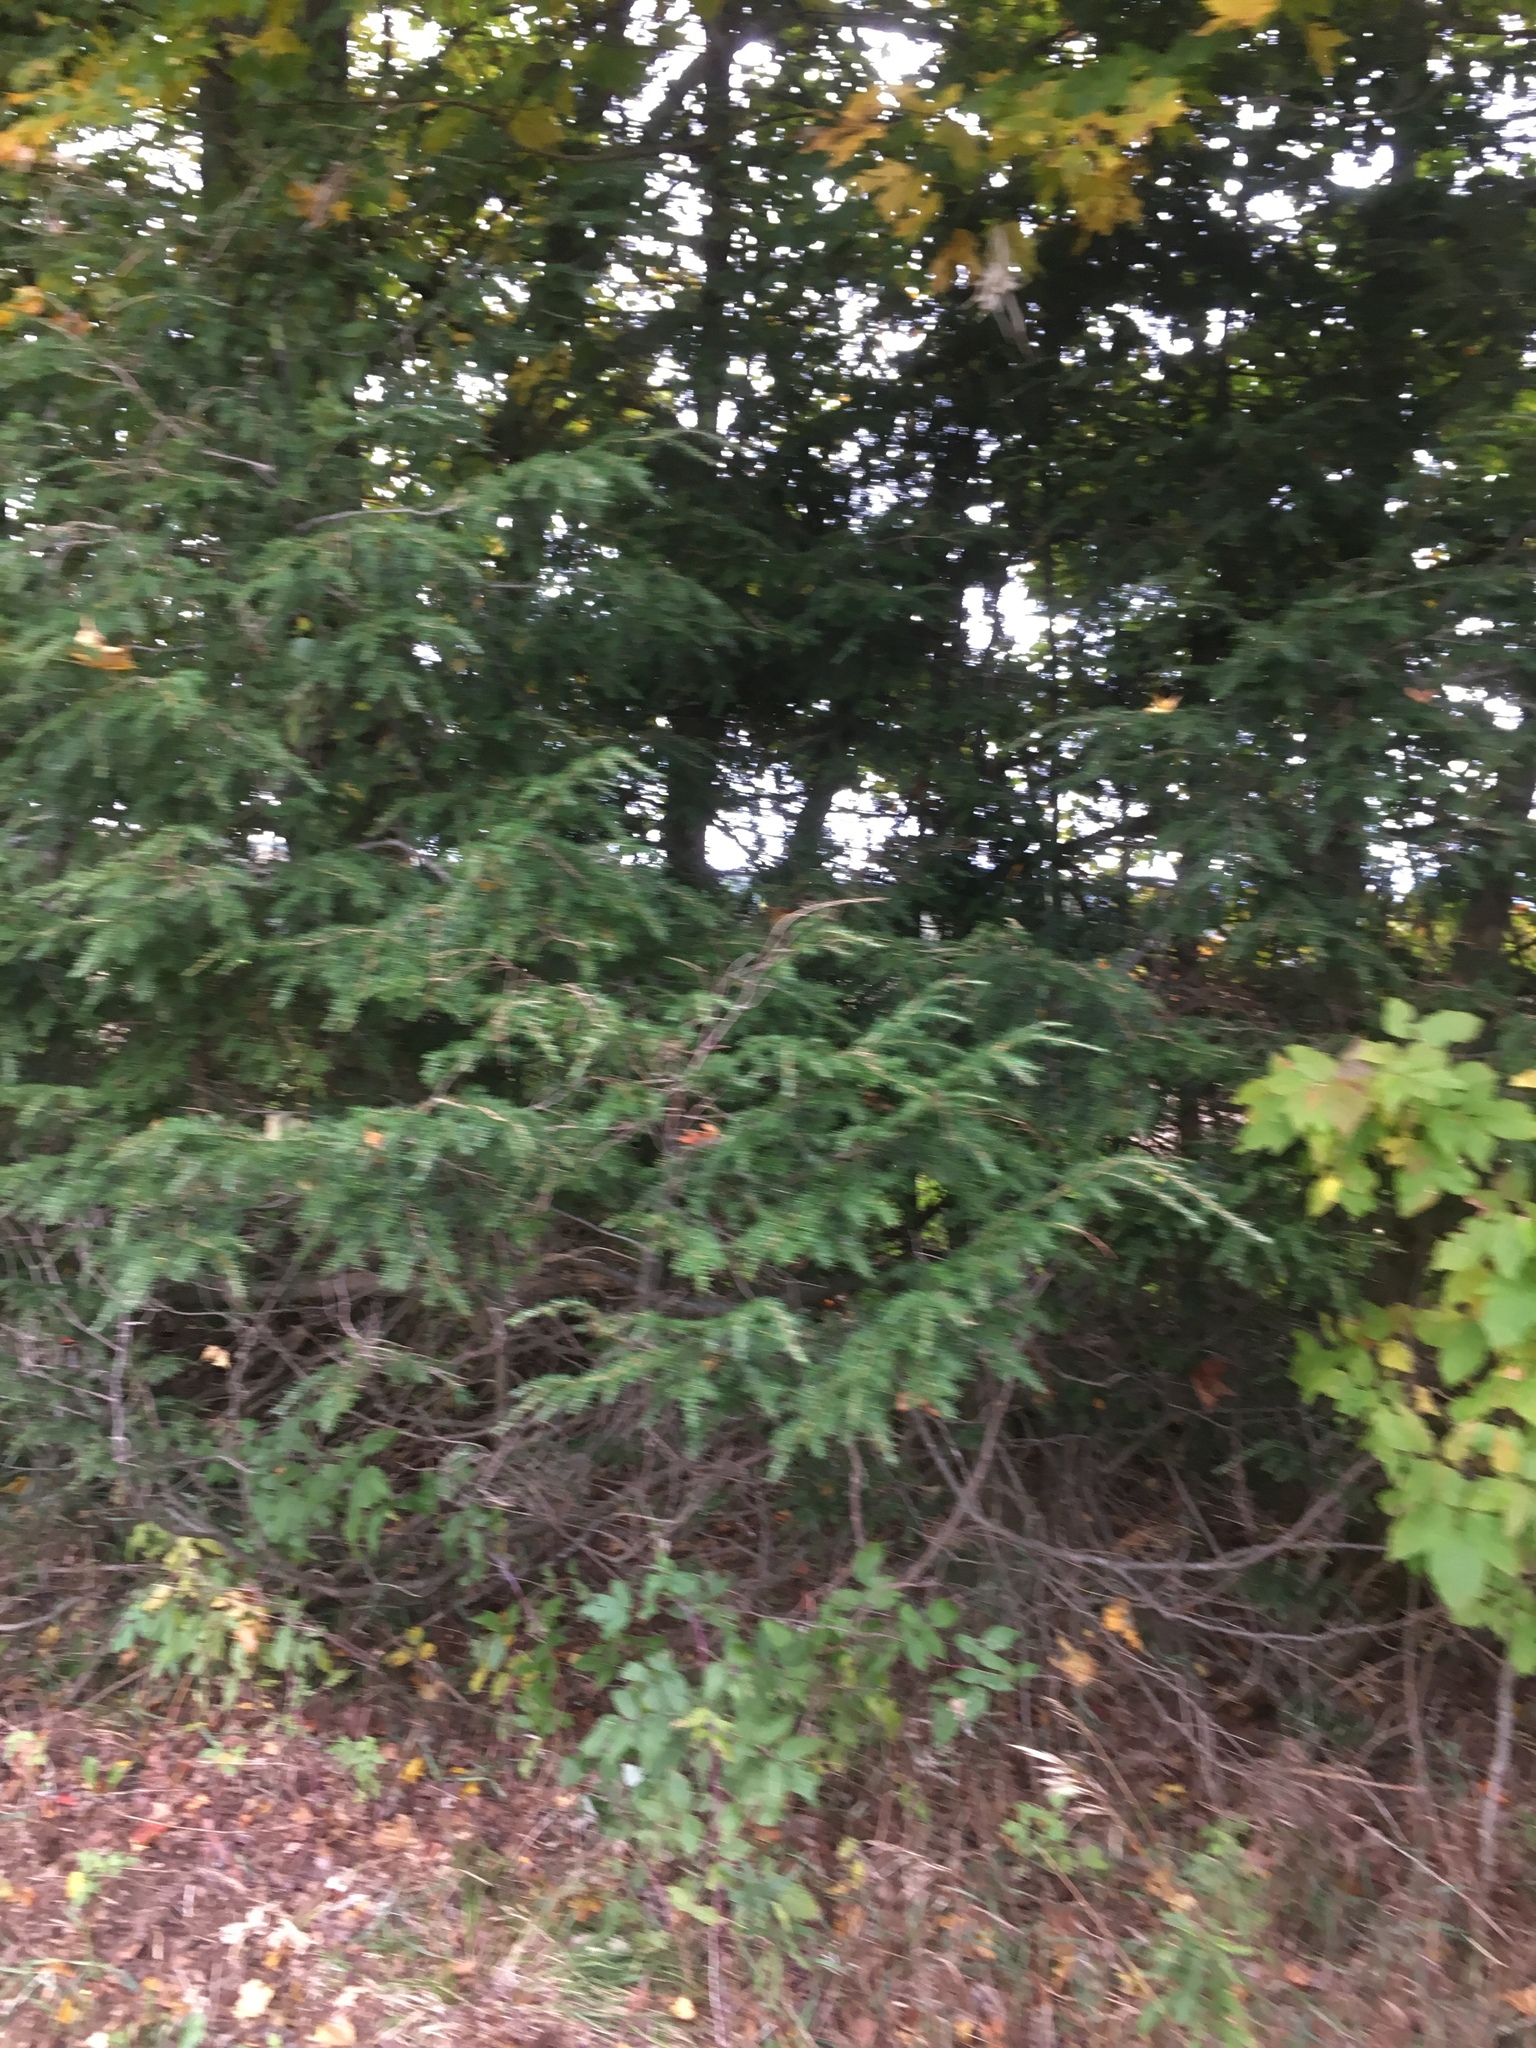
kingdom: Plantae
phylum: Tracheophyta
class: Pinopsida
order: Pinales
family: Pinaceae
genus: Tsuga
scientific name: Tsuga canadensis
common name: Eastern hemlock
